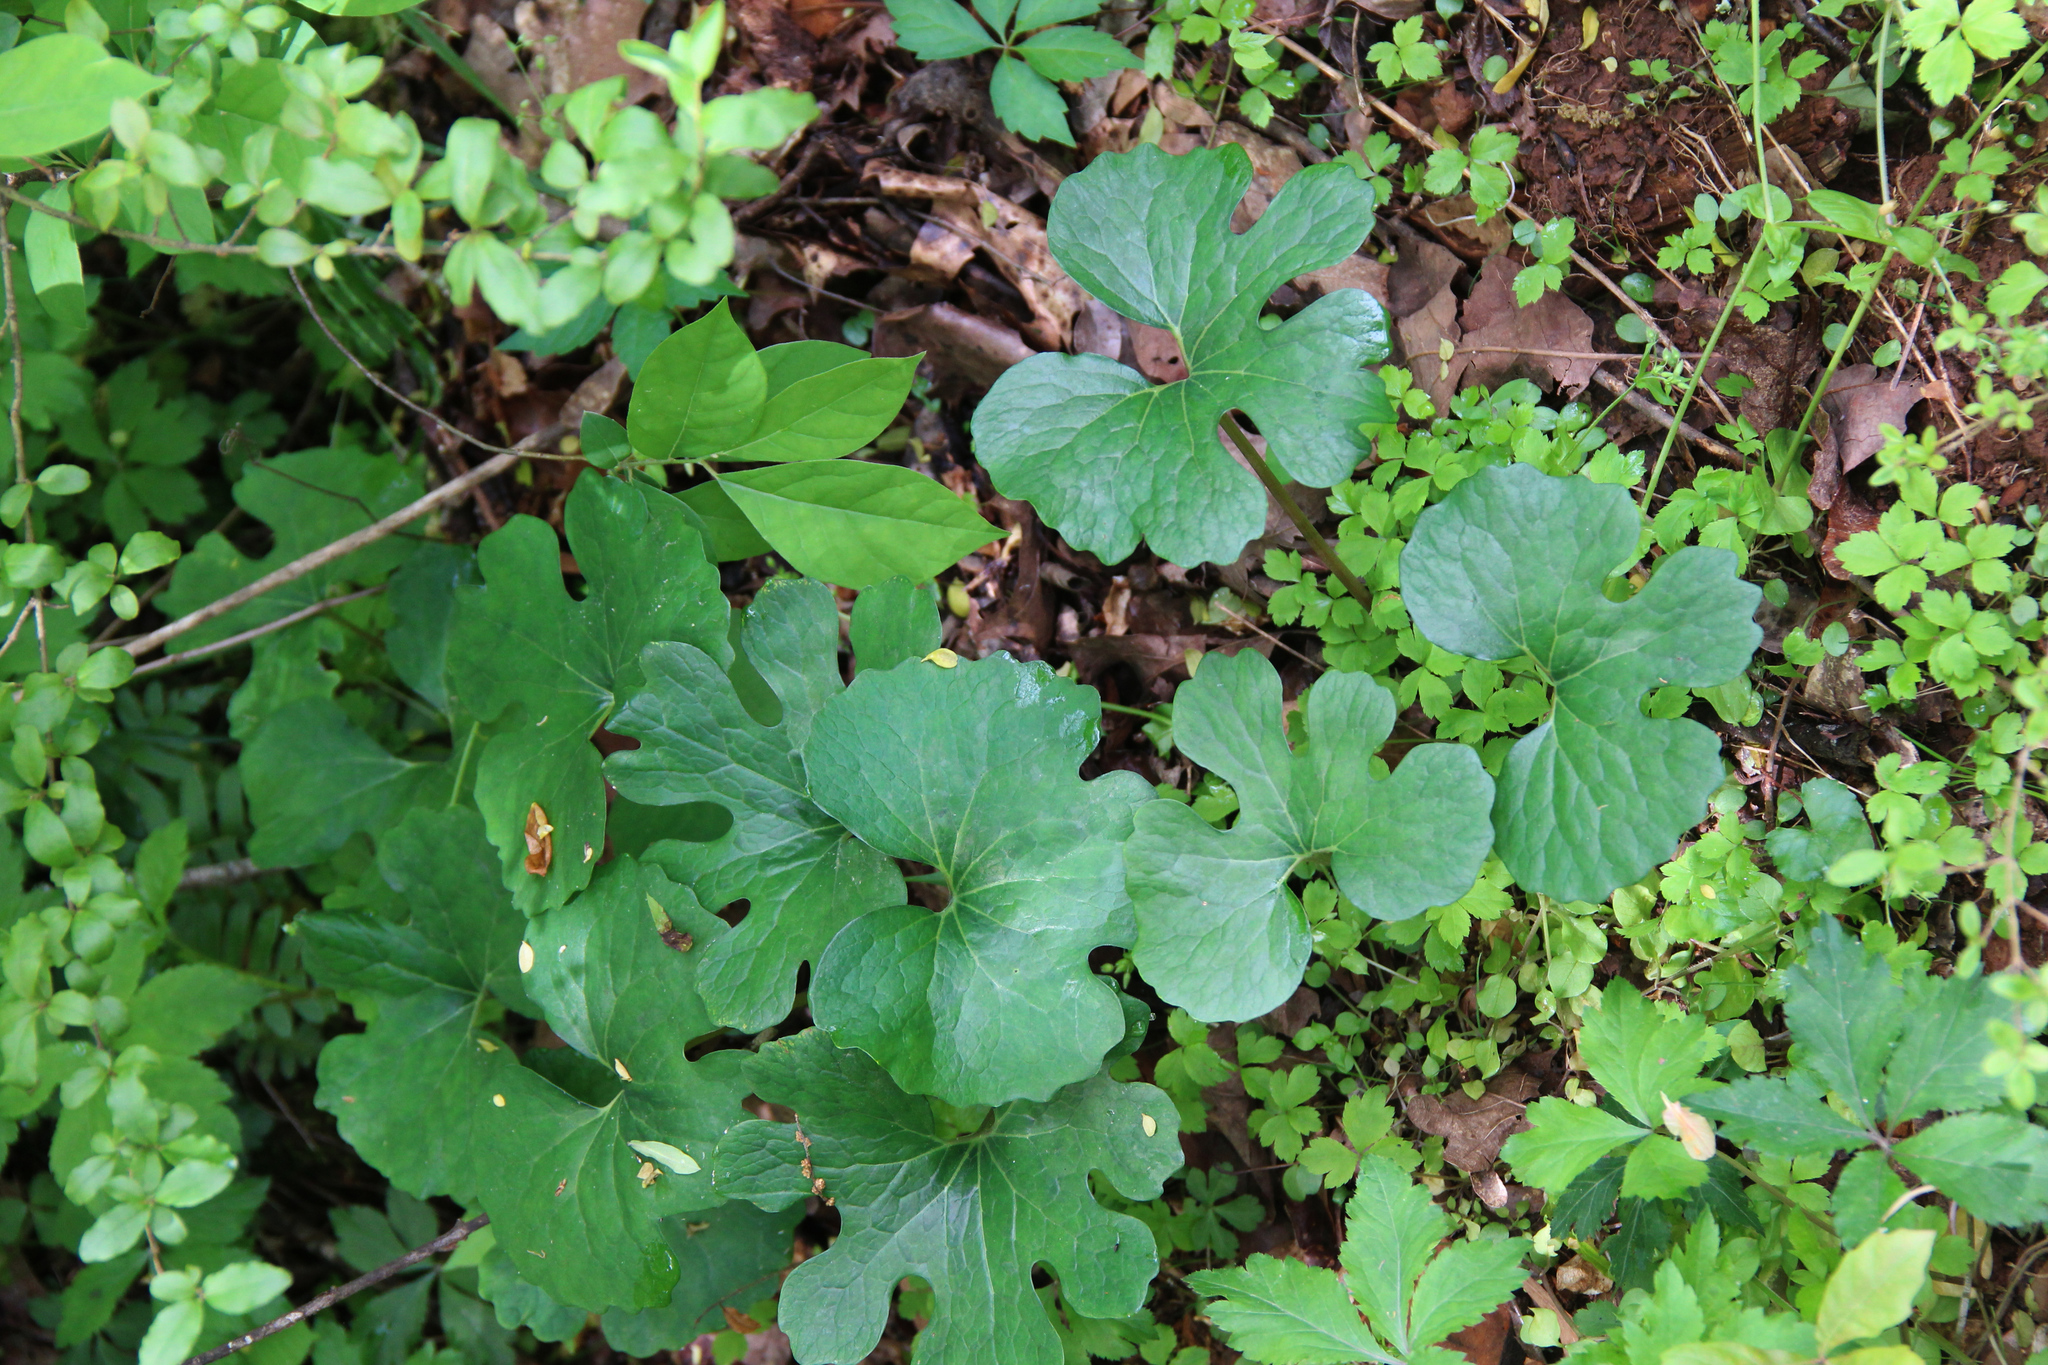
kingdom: Plantae
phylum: Tracheophyta
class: Magnoliopsida
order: Ranunculales
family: Papaveraceae
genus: Sanguinaria
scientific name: Sanguinaria canadensis
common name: Bloodroot
